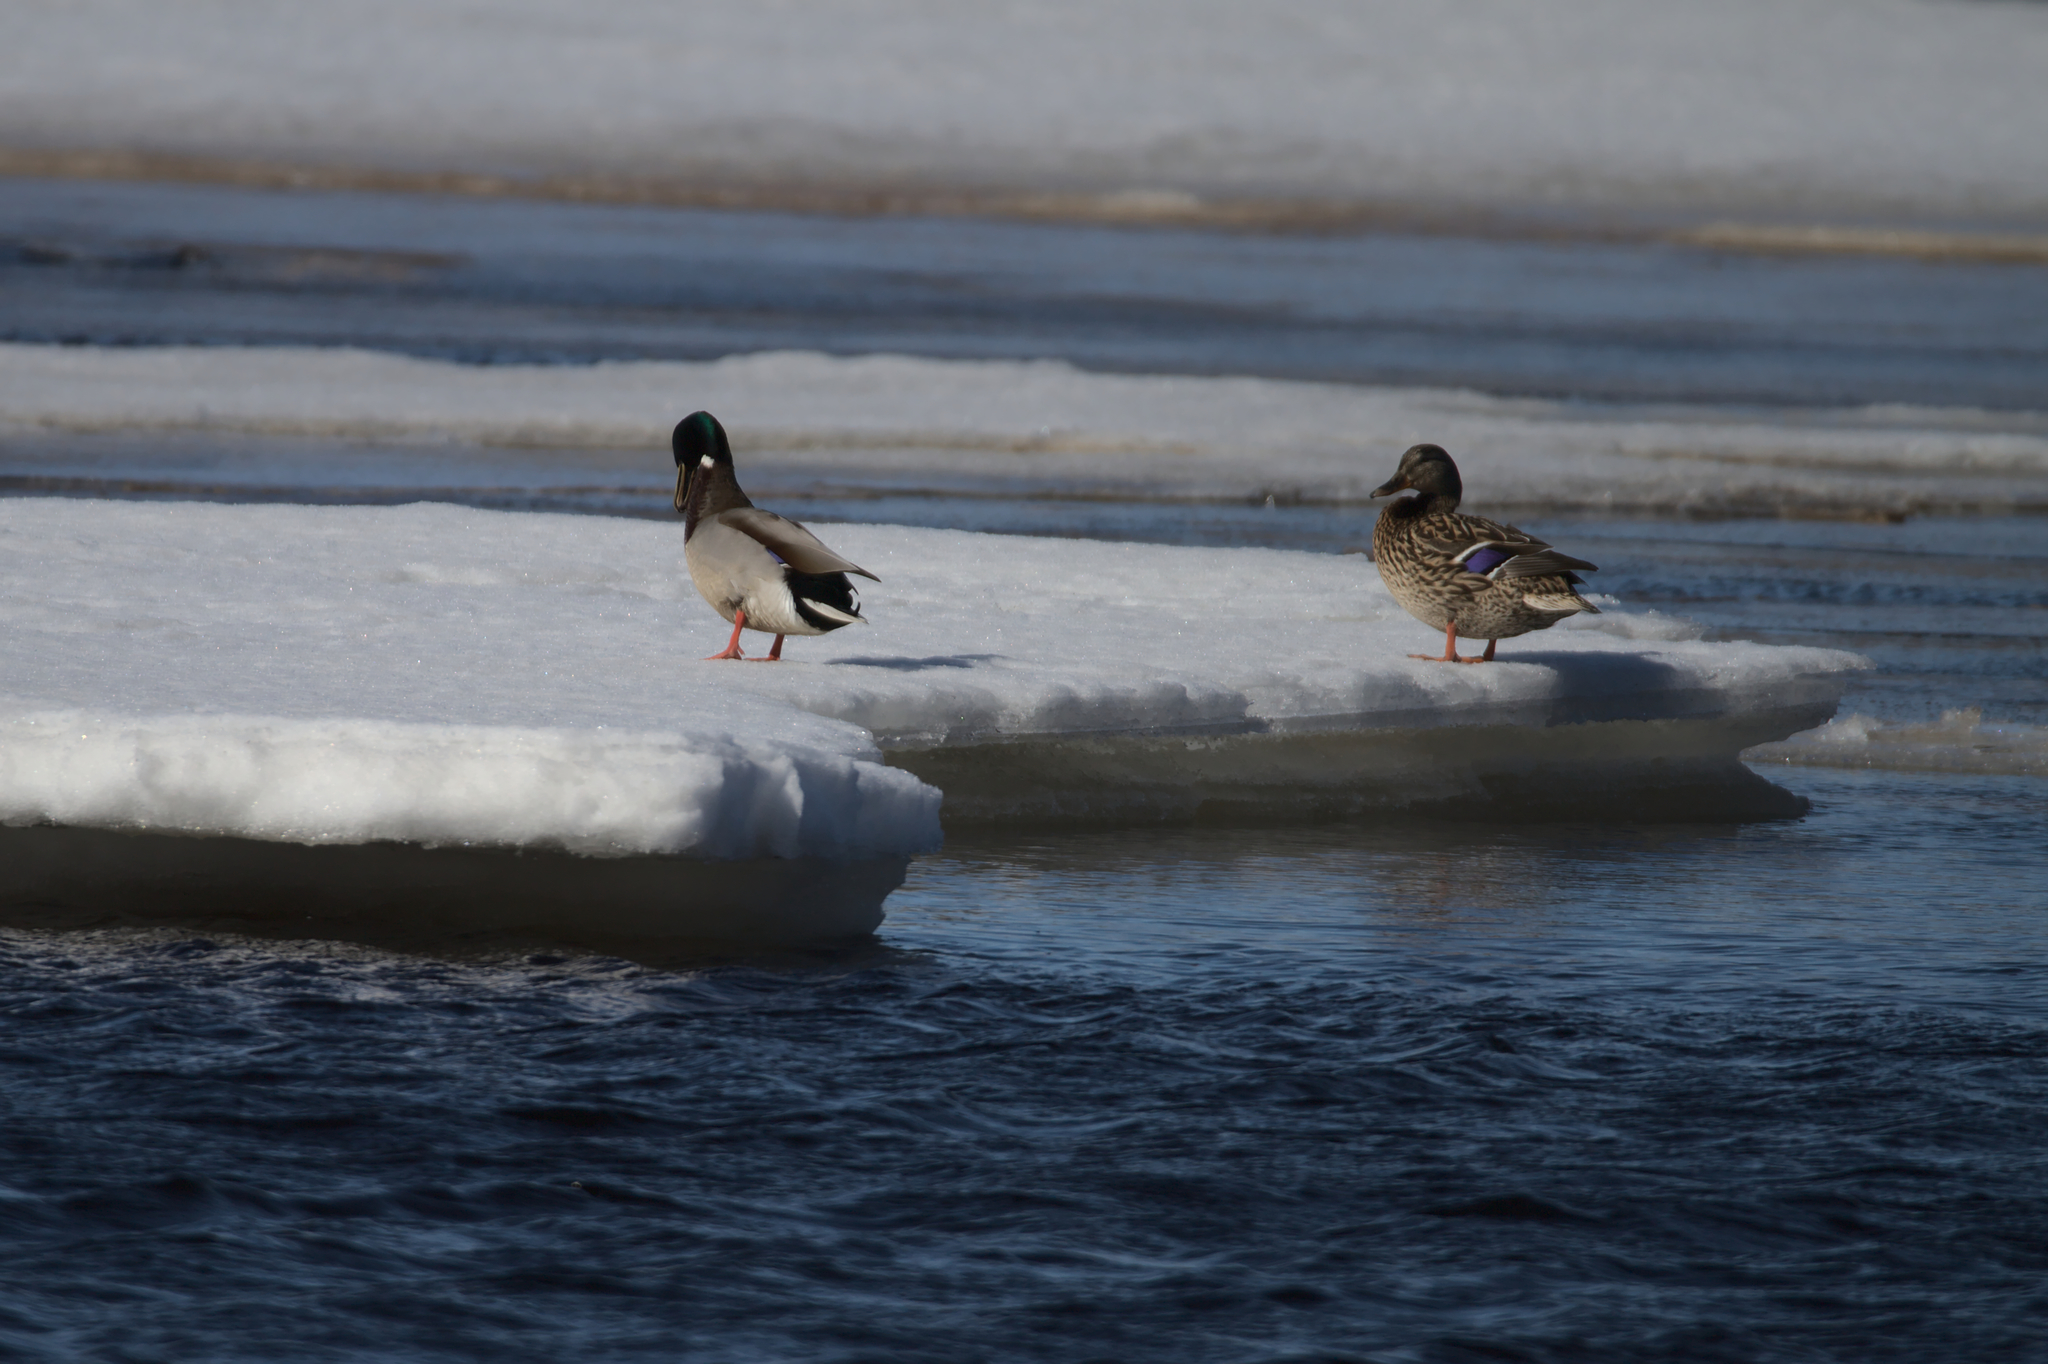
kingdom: Animalia
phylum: Chordata
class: Aves
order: Anseriformes
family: Anatidae
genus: Anas
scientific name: Anas platyrhynchos
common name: Mallard
